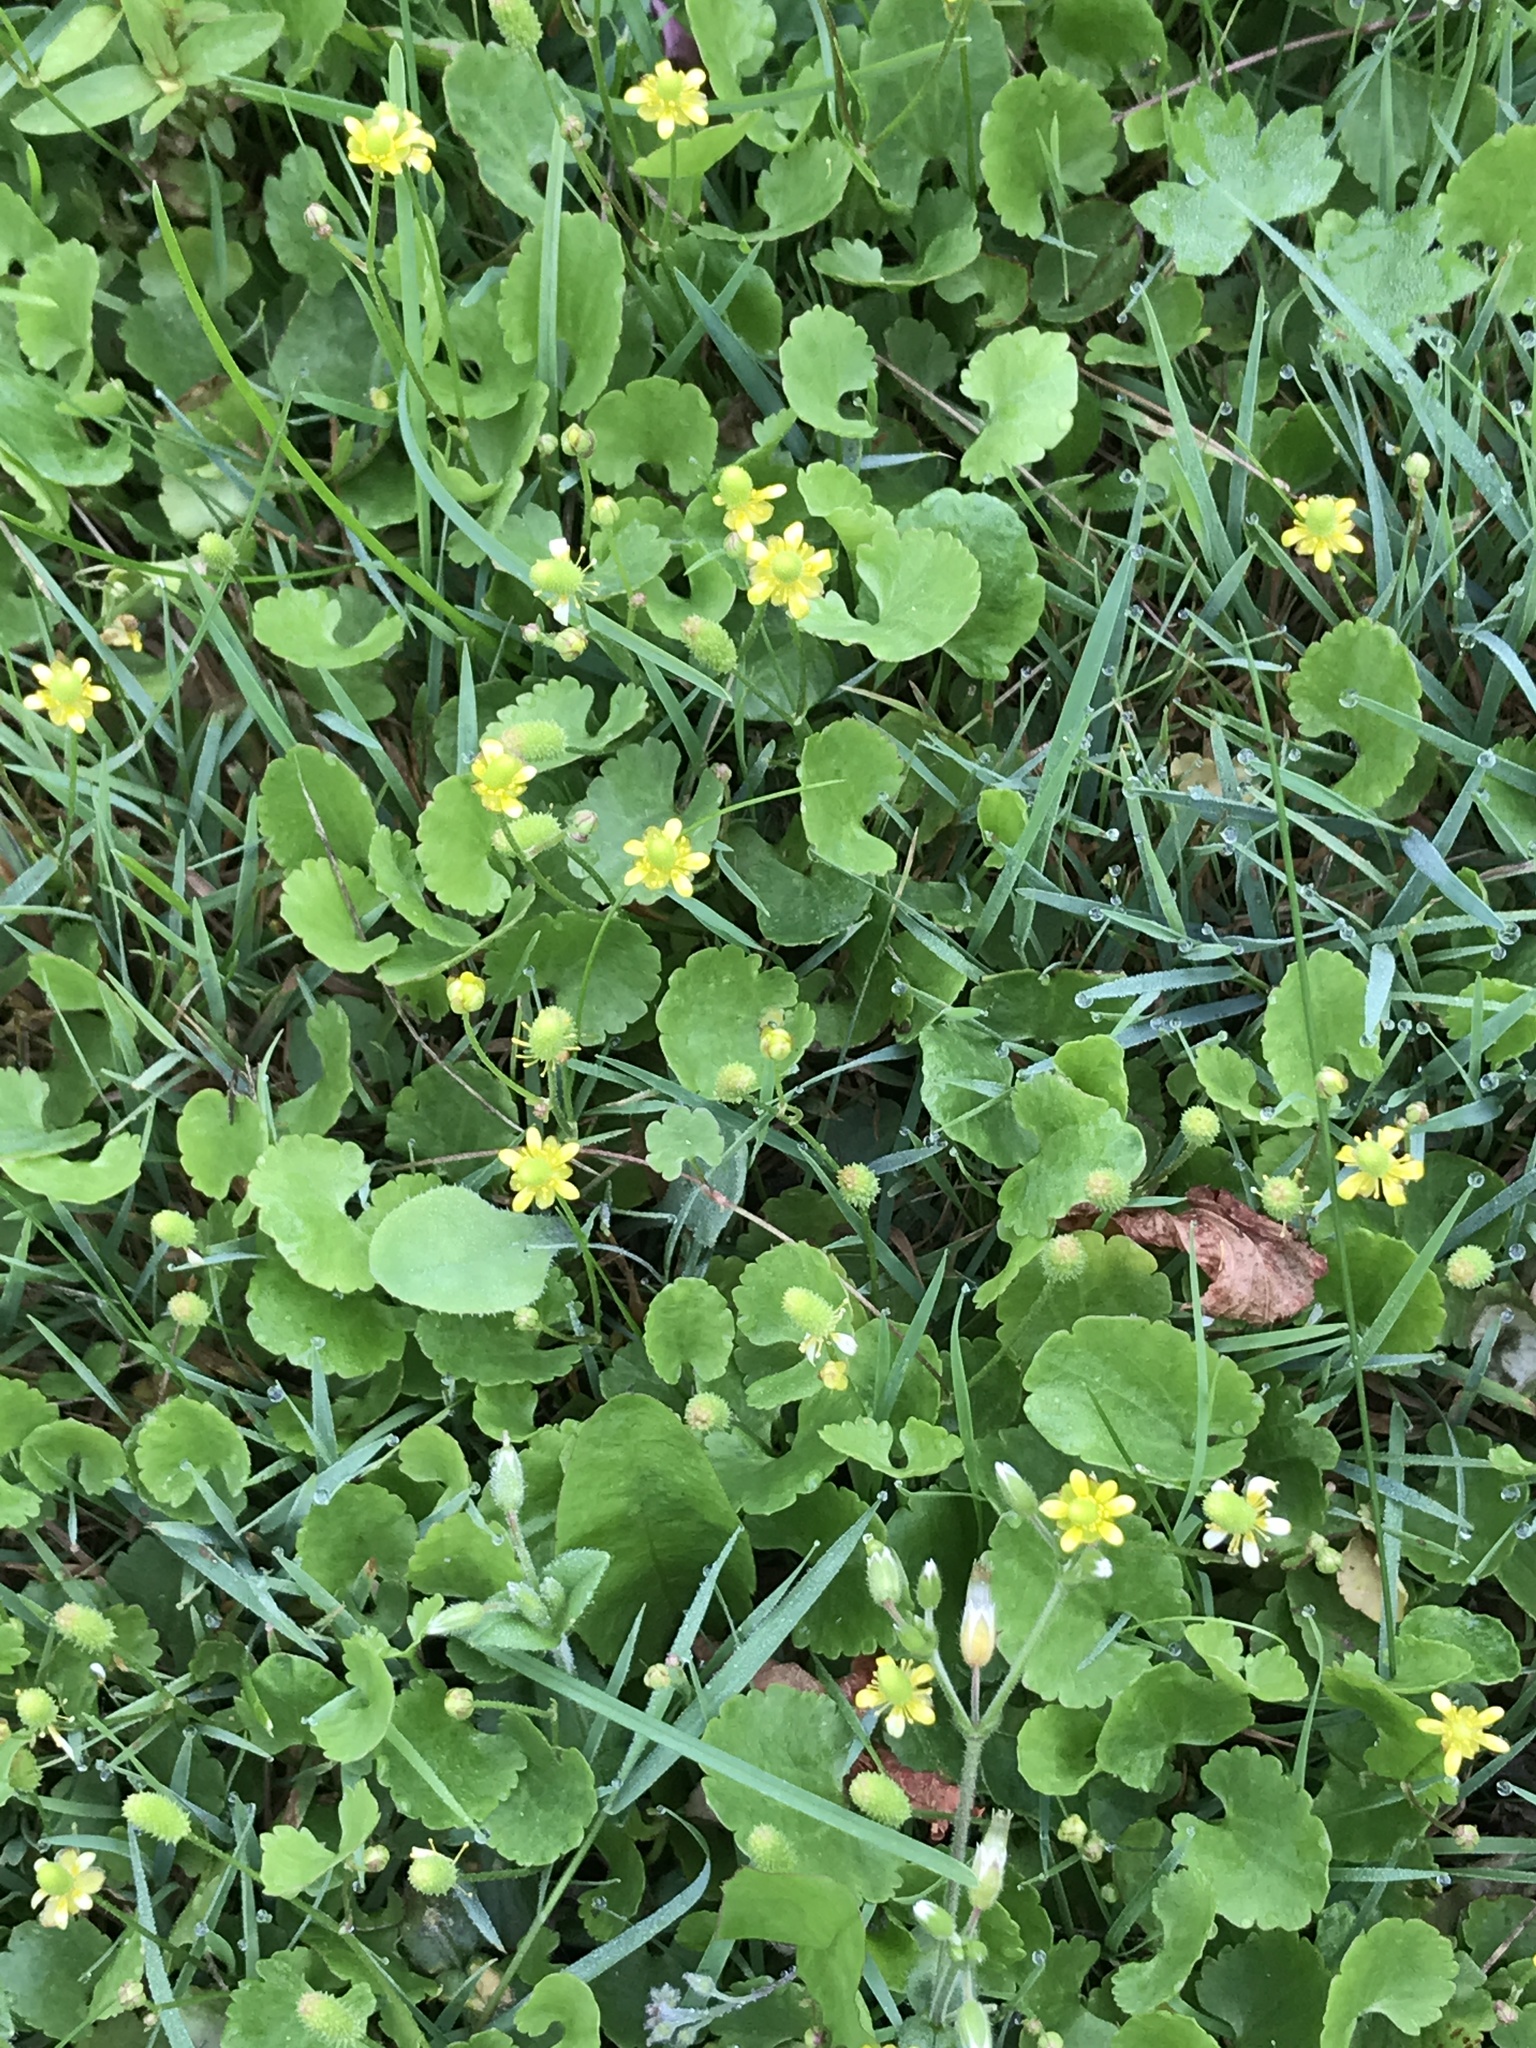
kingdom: Plantae
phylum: Tracheophyta
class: Magnoliopsida
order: Ranunculales
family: Ranunculaceae
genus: Halerpestes
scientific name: Halerpestes cymbalaria
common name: Seaside crowfoot
